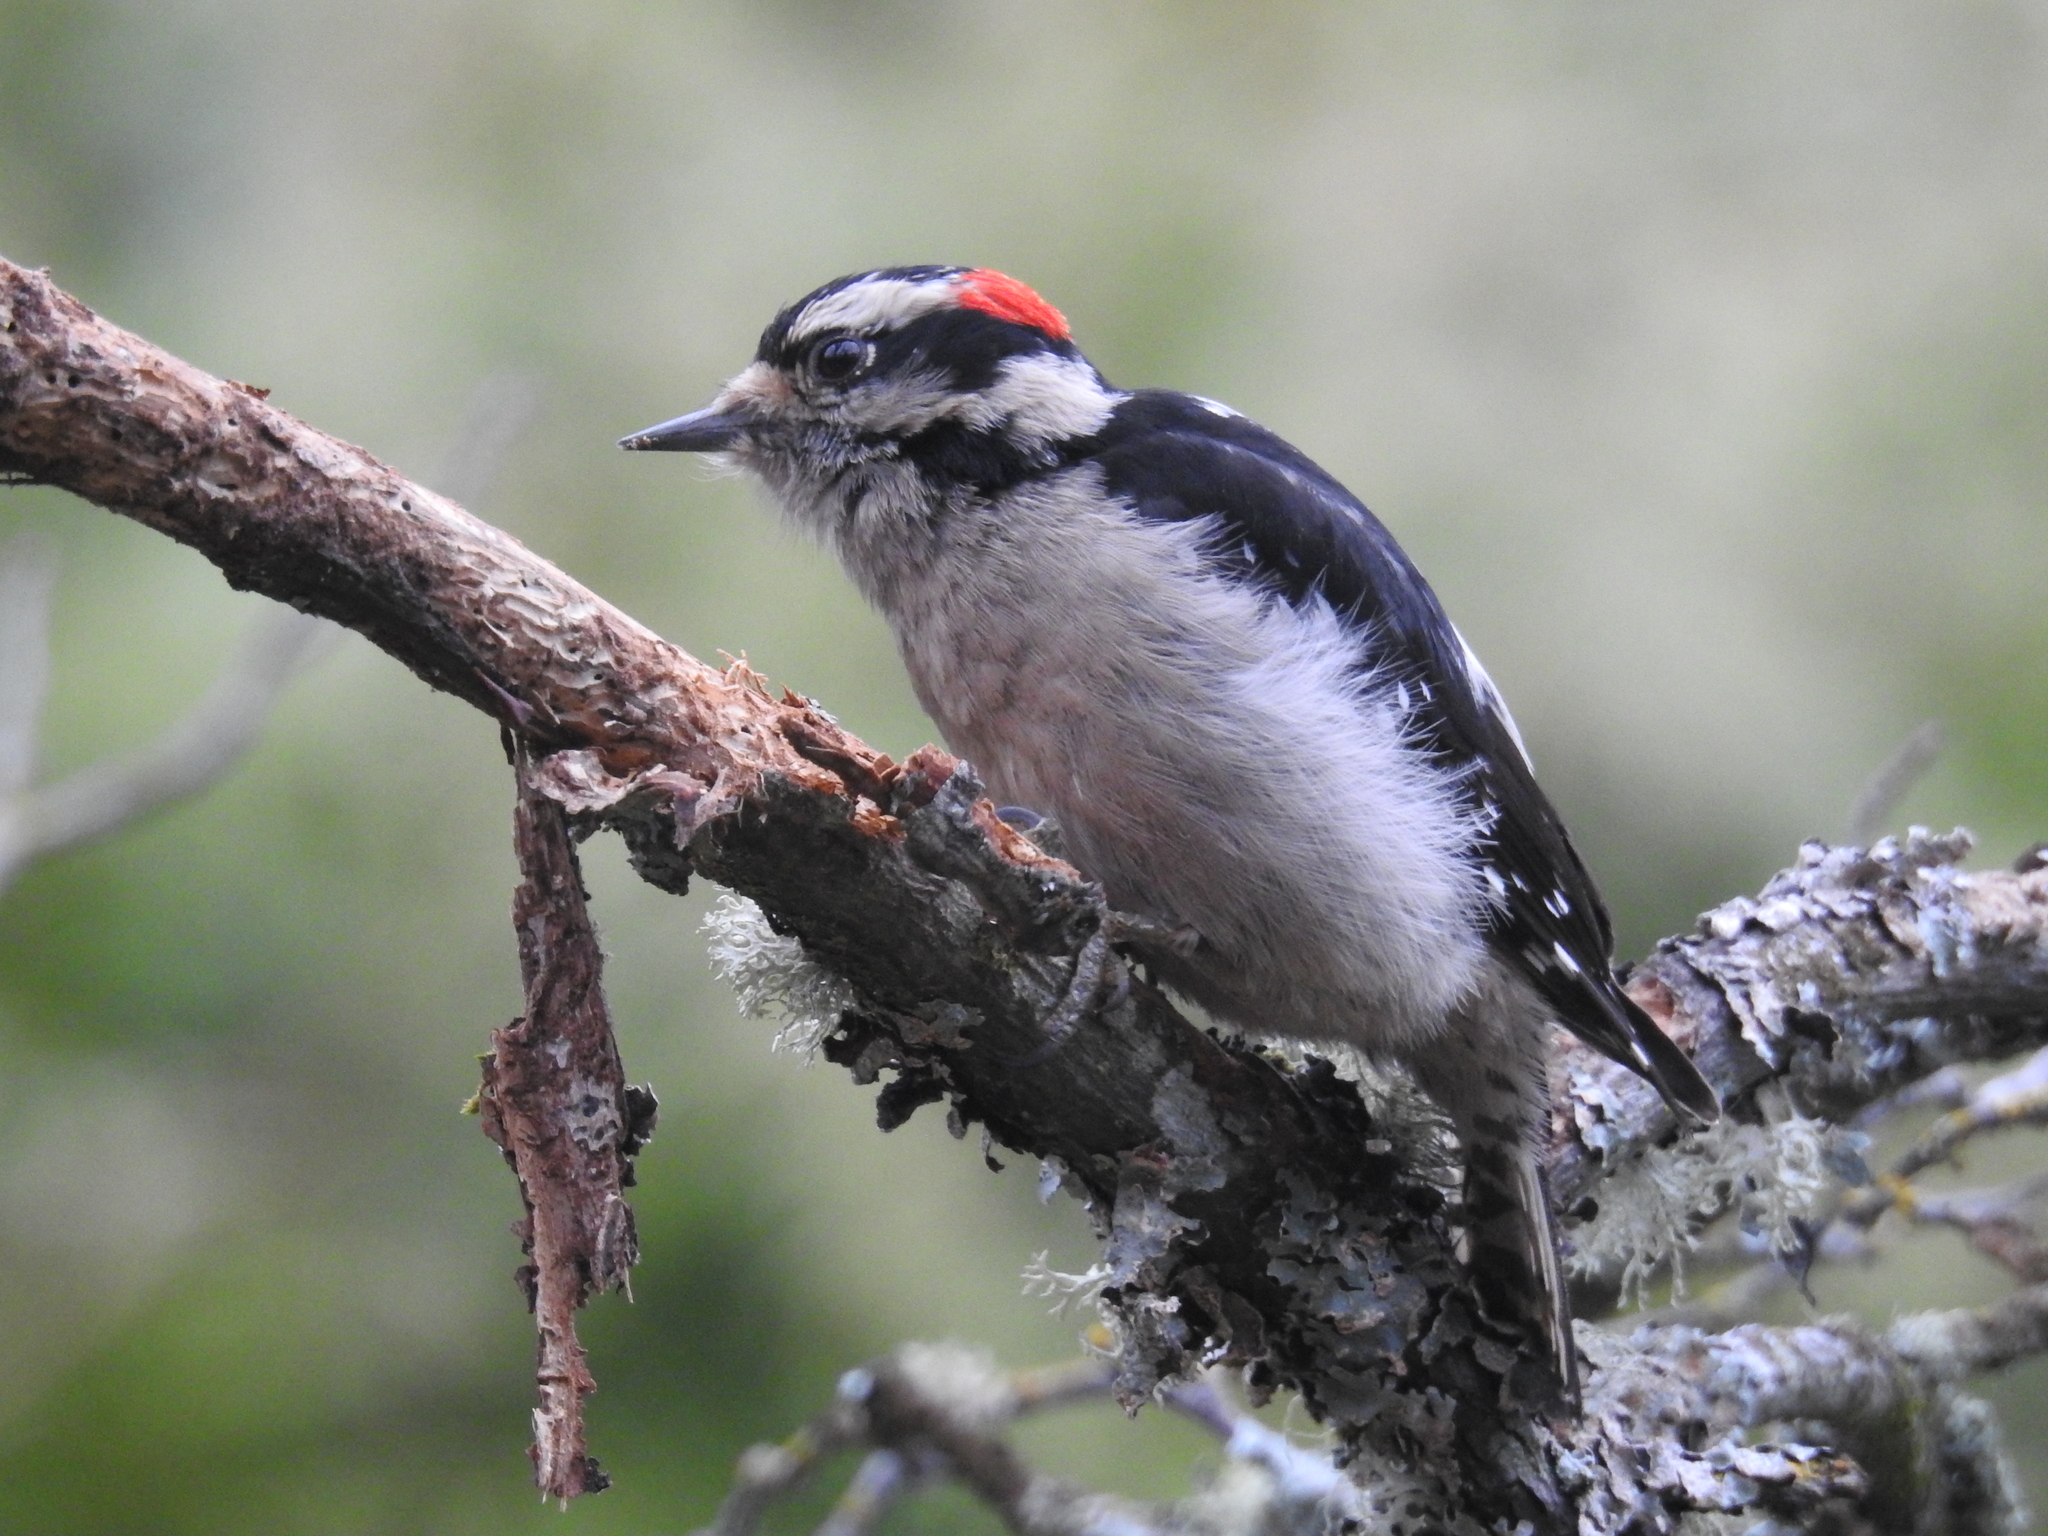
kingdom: Animalia
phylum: Chordata
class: Aves
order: Piciformes
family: Picidae
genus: Dryobates
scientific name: Dryobates pubescens
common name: Downy woodpecker
